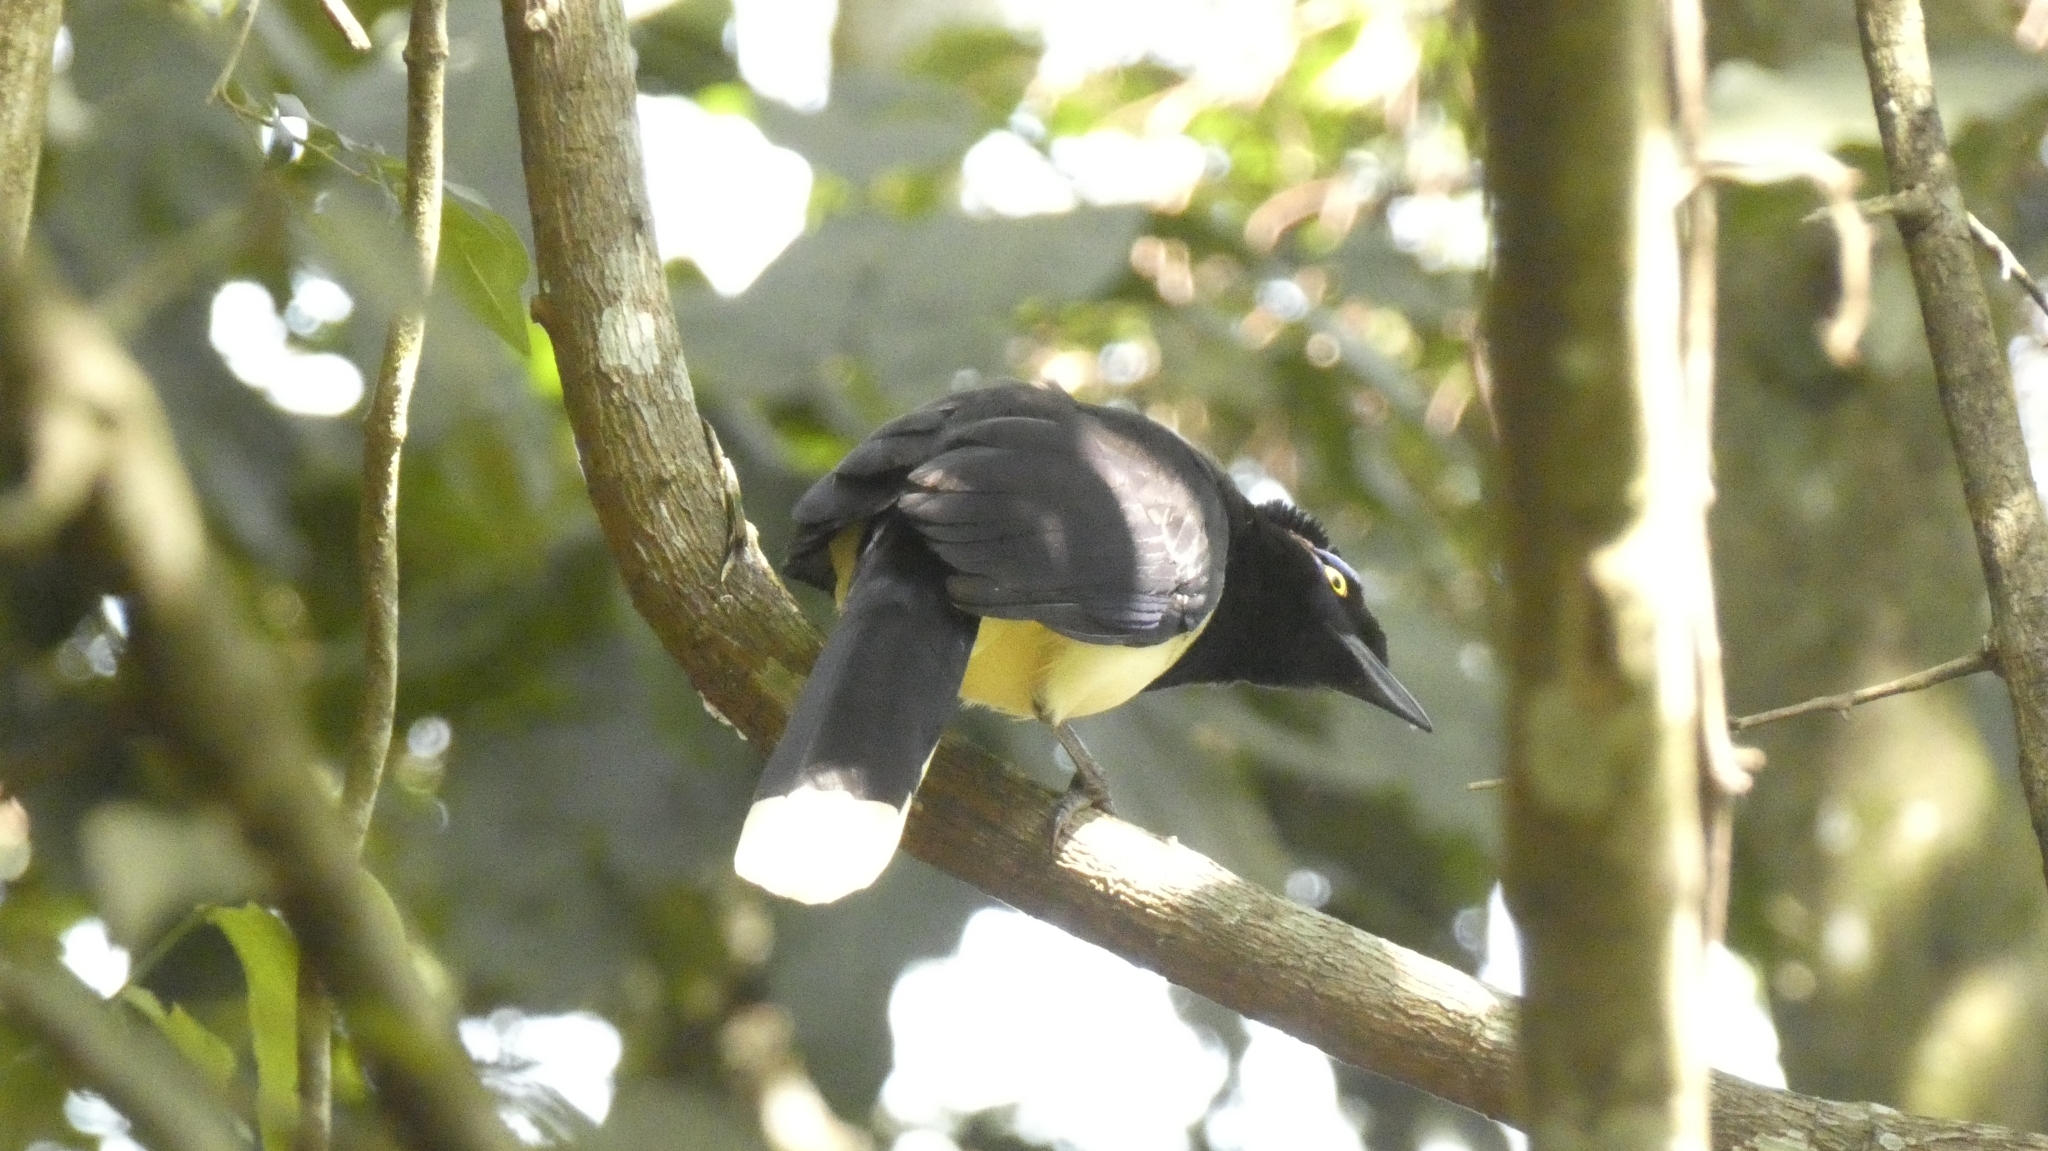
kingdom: Animalia
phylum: Chordata
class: Aves
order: Passeriformes
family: Corvidae
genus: Cyanocorax
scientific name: Cyanocorax chrysops
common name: Plush-crested jay
